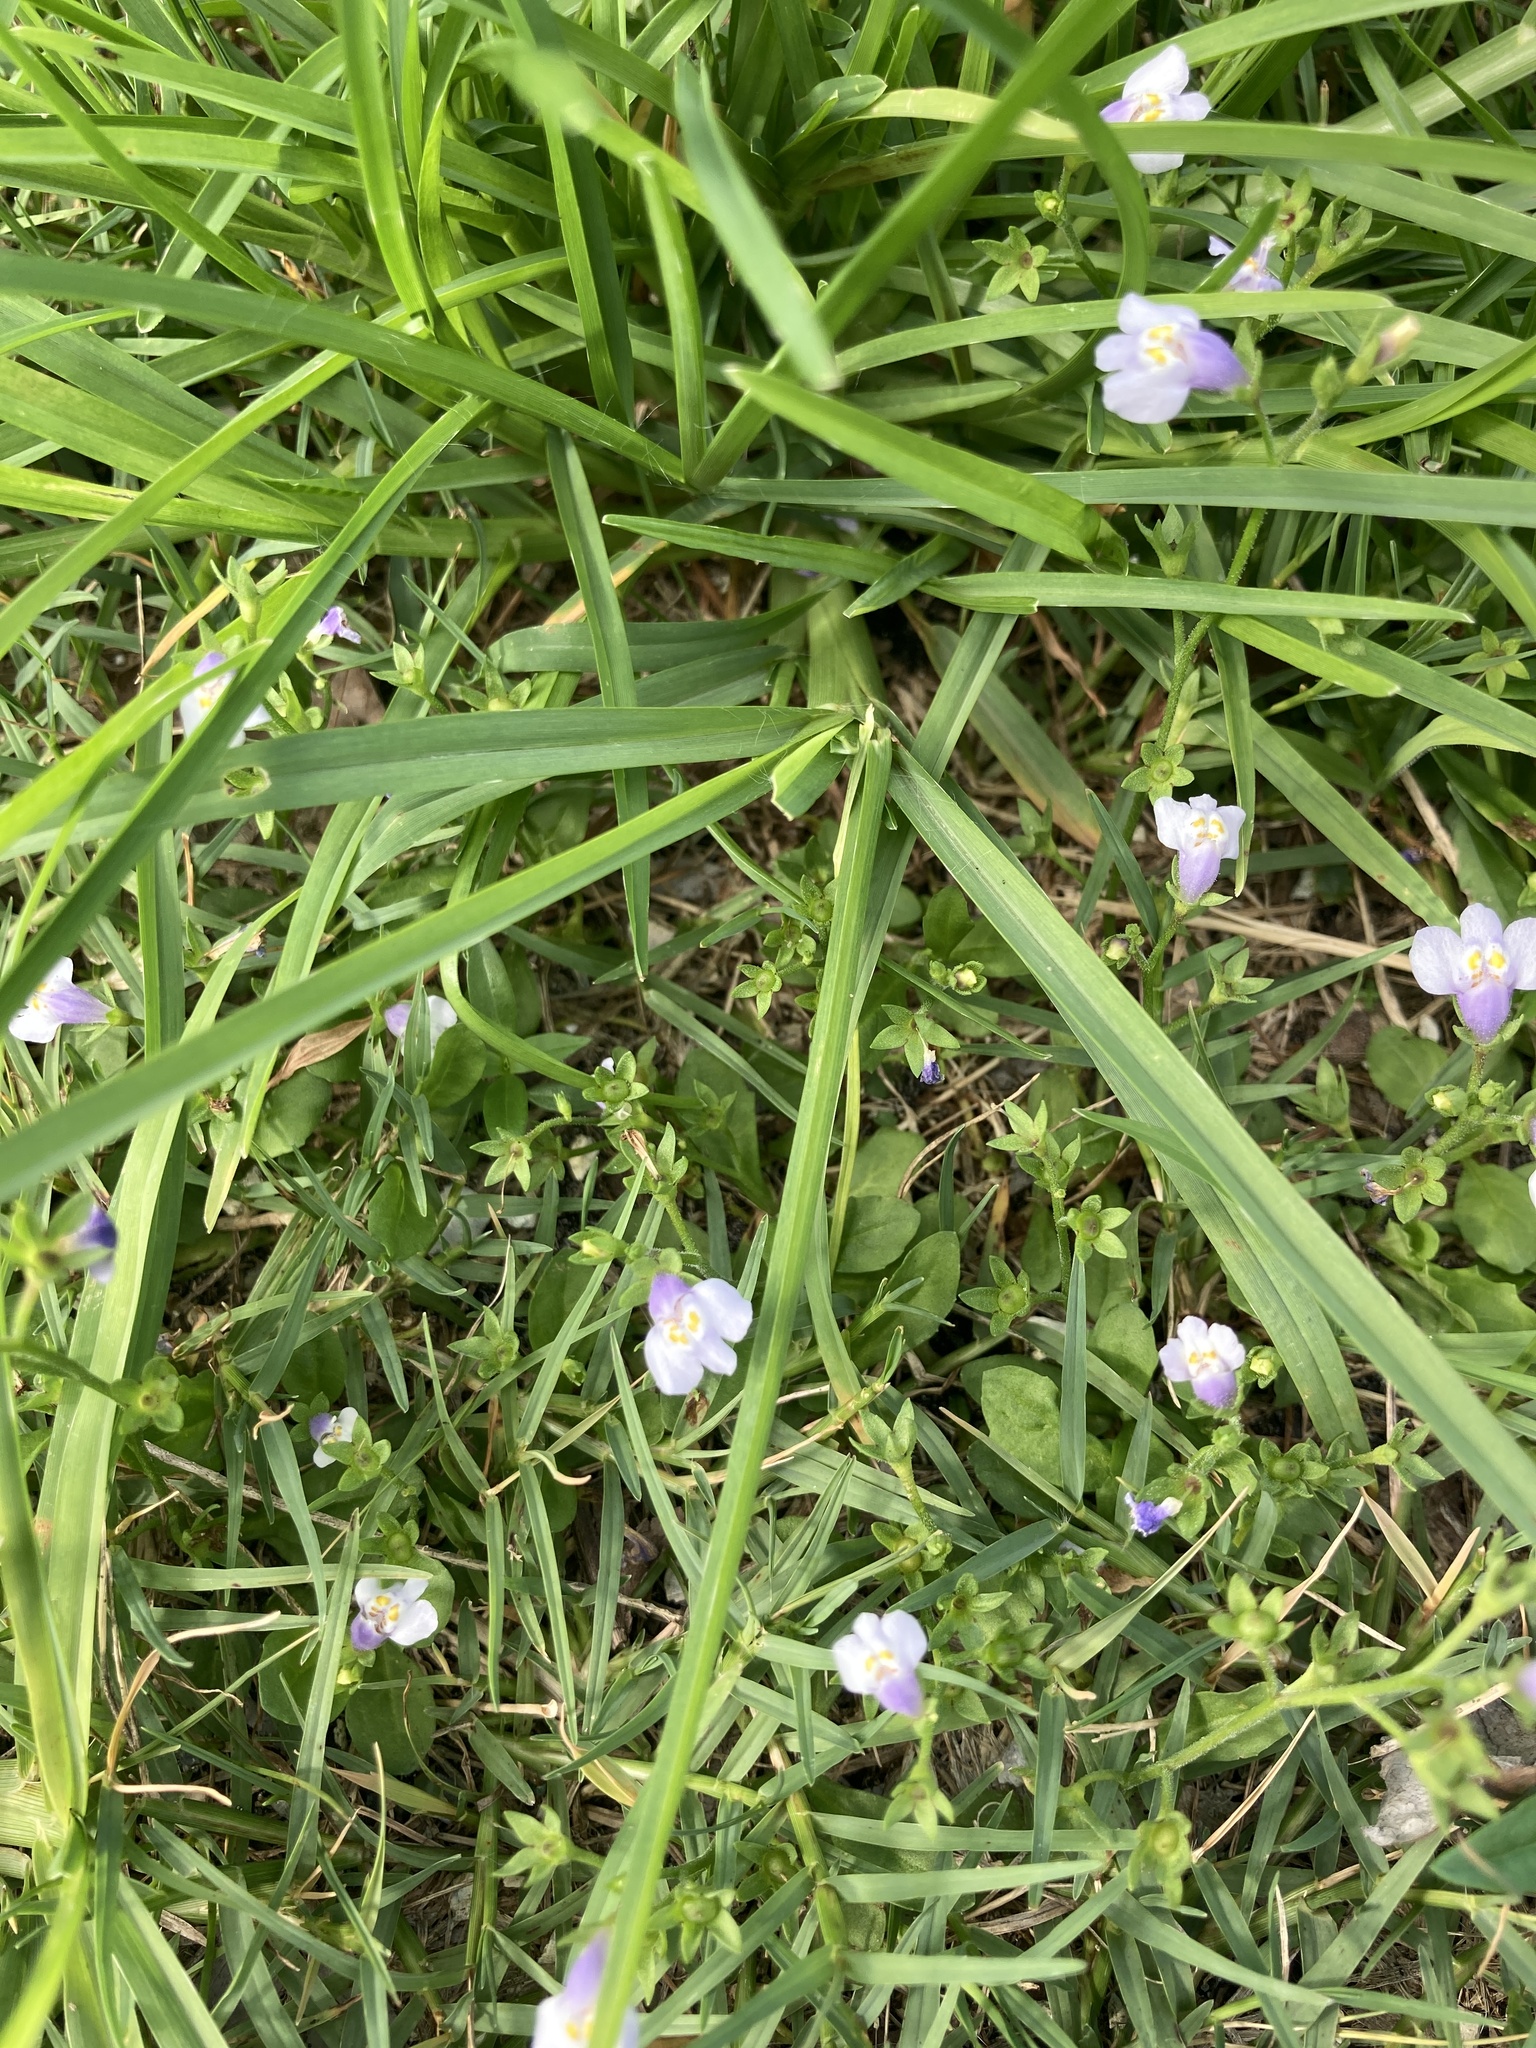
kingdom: Plantae
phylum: Tracheophyta
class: Magnoliopsida
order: Lamiales
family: Mazaceae
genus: Mazus
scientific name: Mazus pumilus
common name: Japanese mazus
